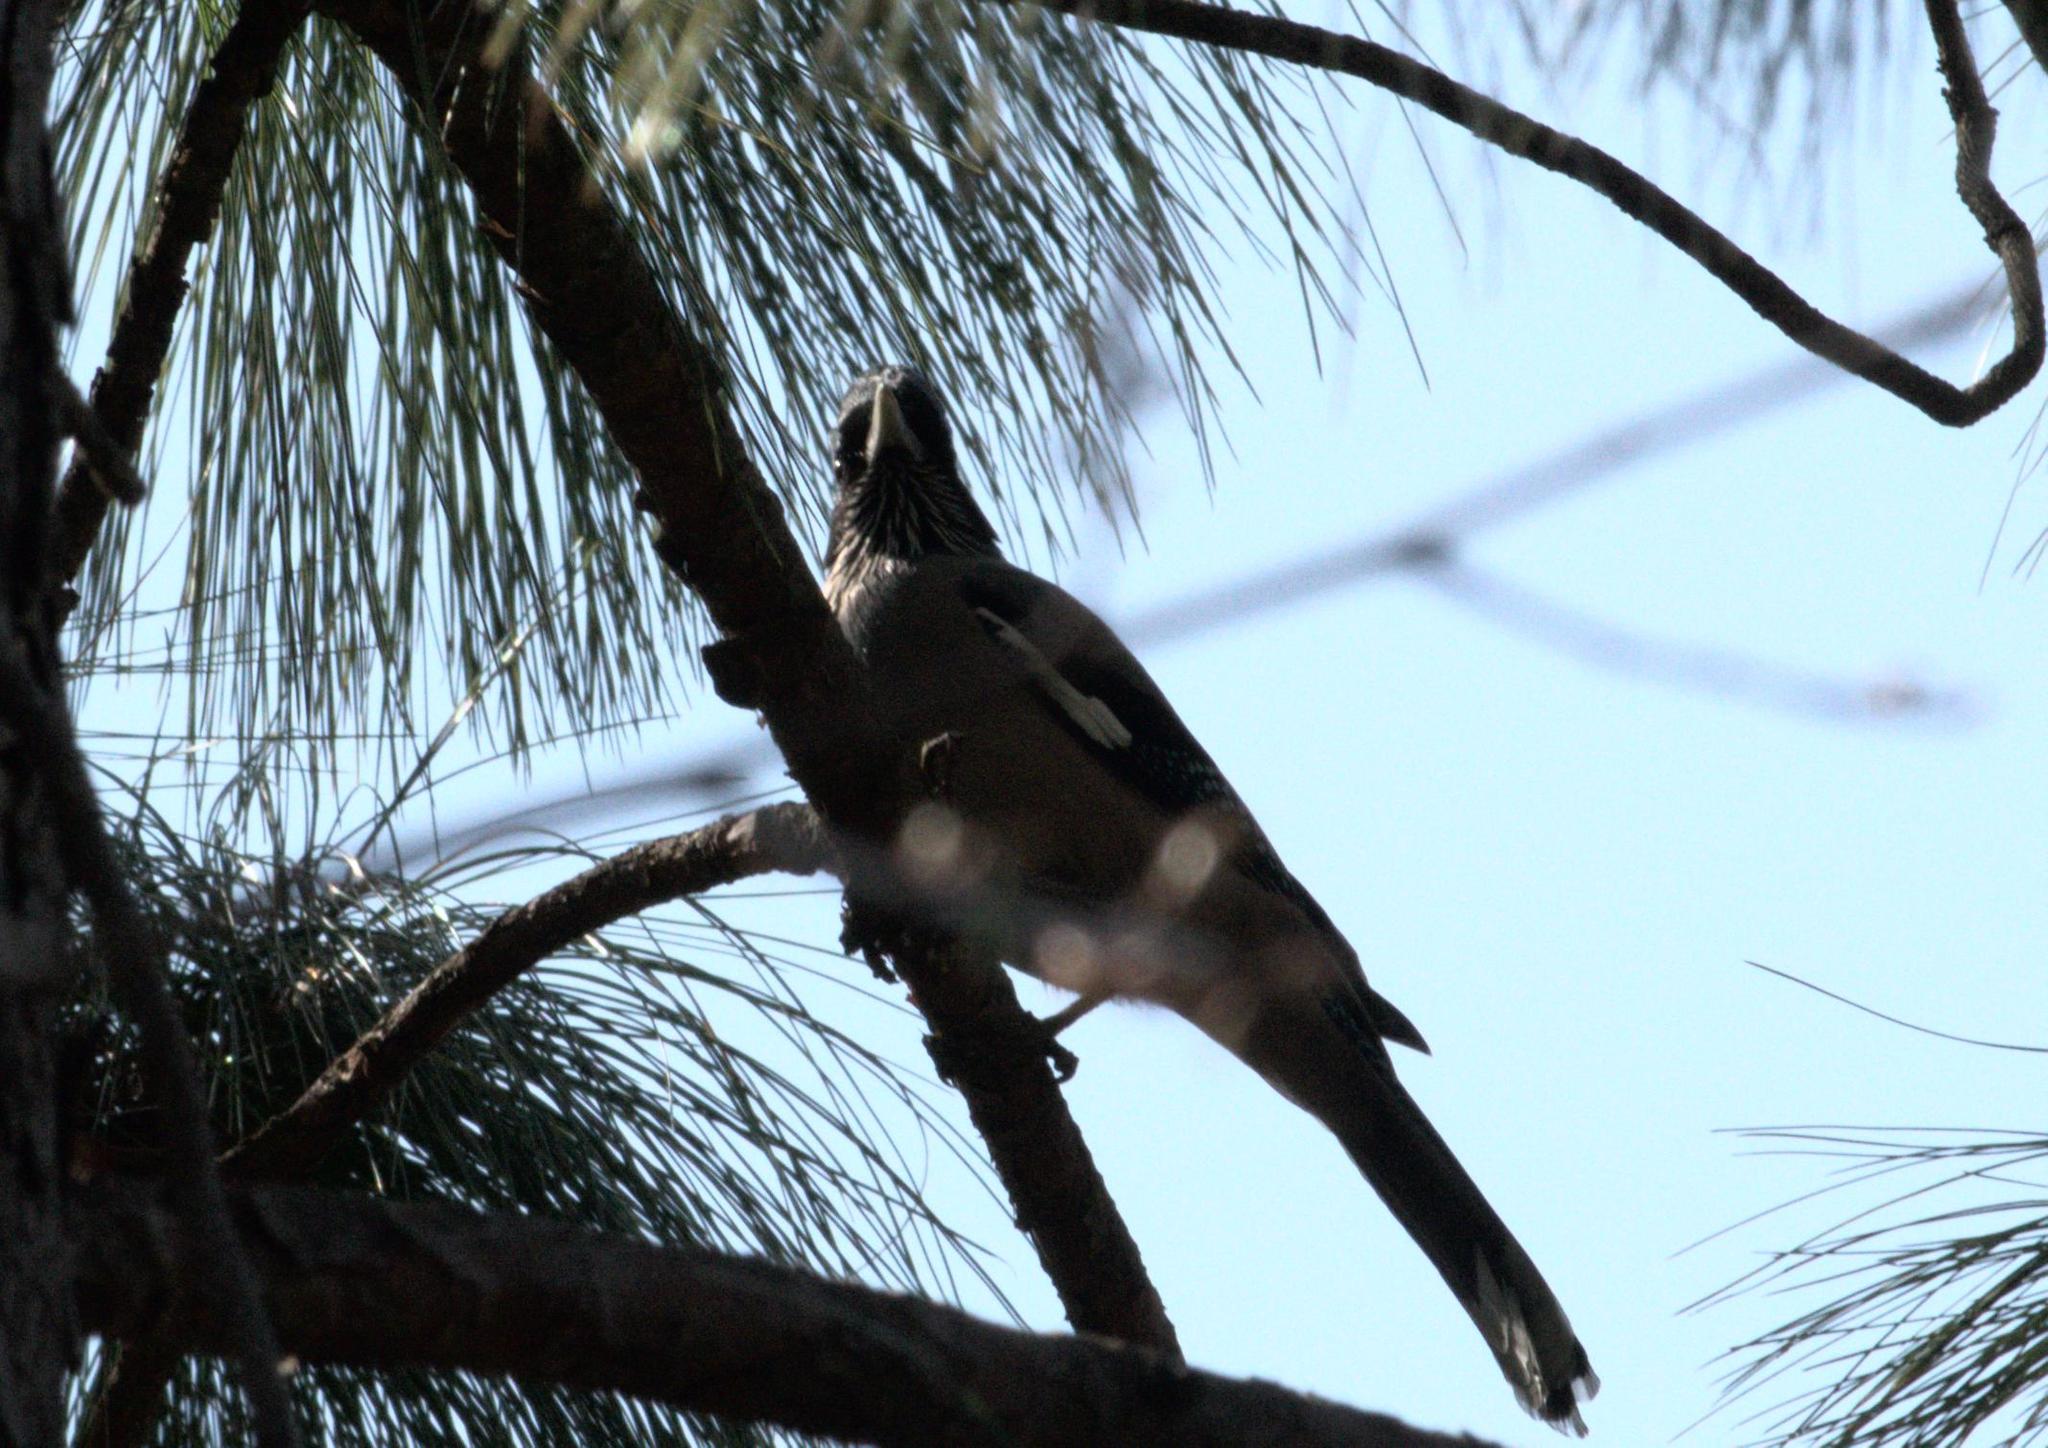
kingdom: Animalia
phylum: Chordata
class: Aves
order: Passeriformes
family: Corvidae
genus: Garrulus
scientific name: Garrulus lanceolatus
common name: Black-headed jay
